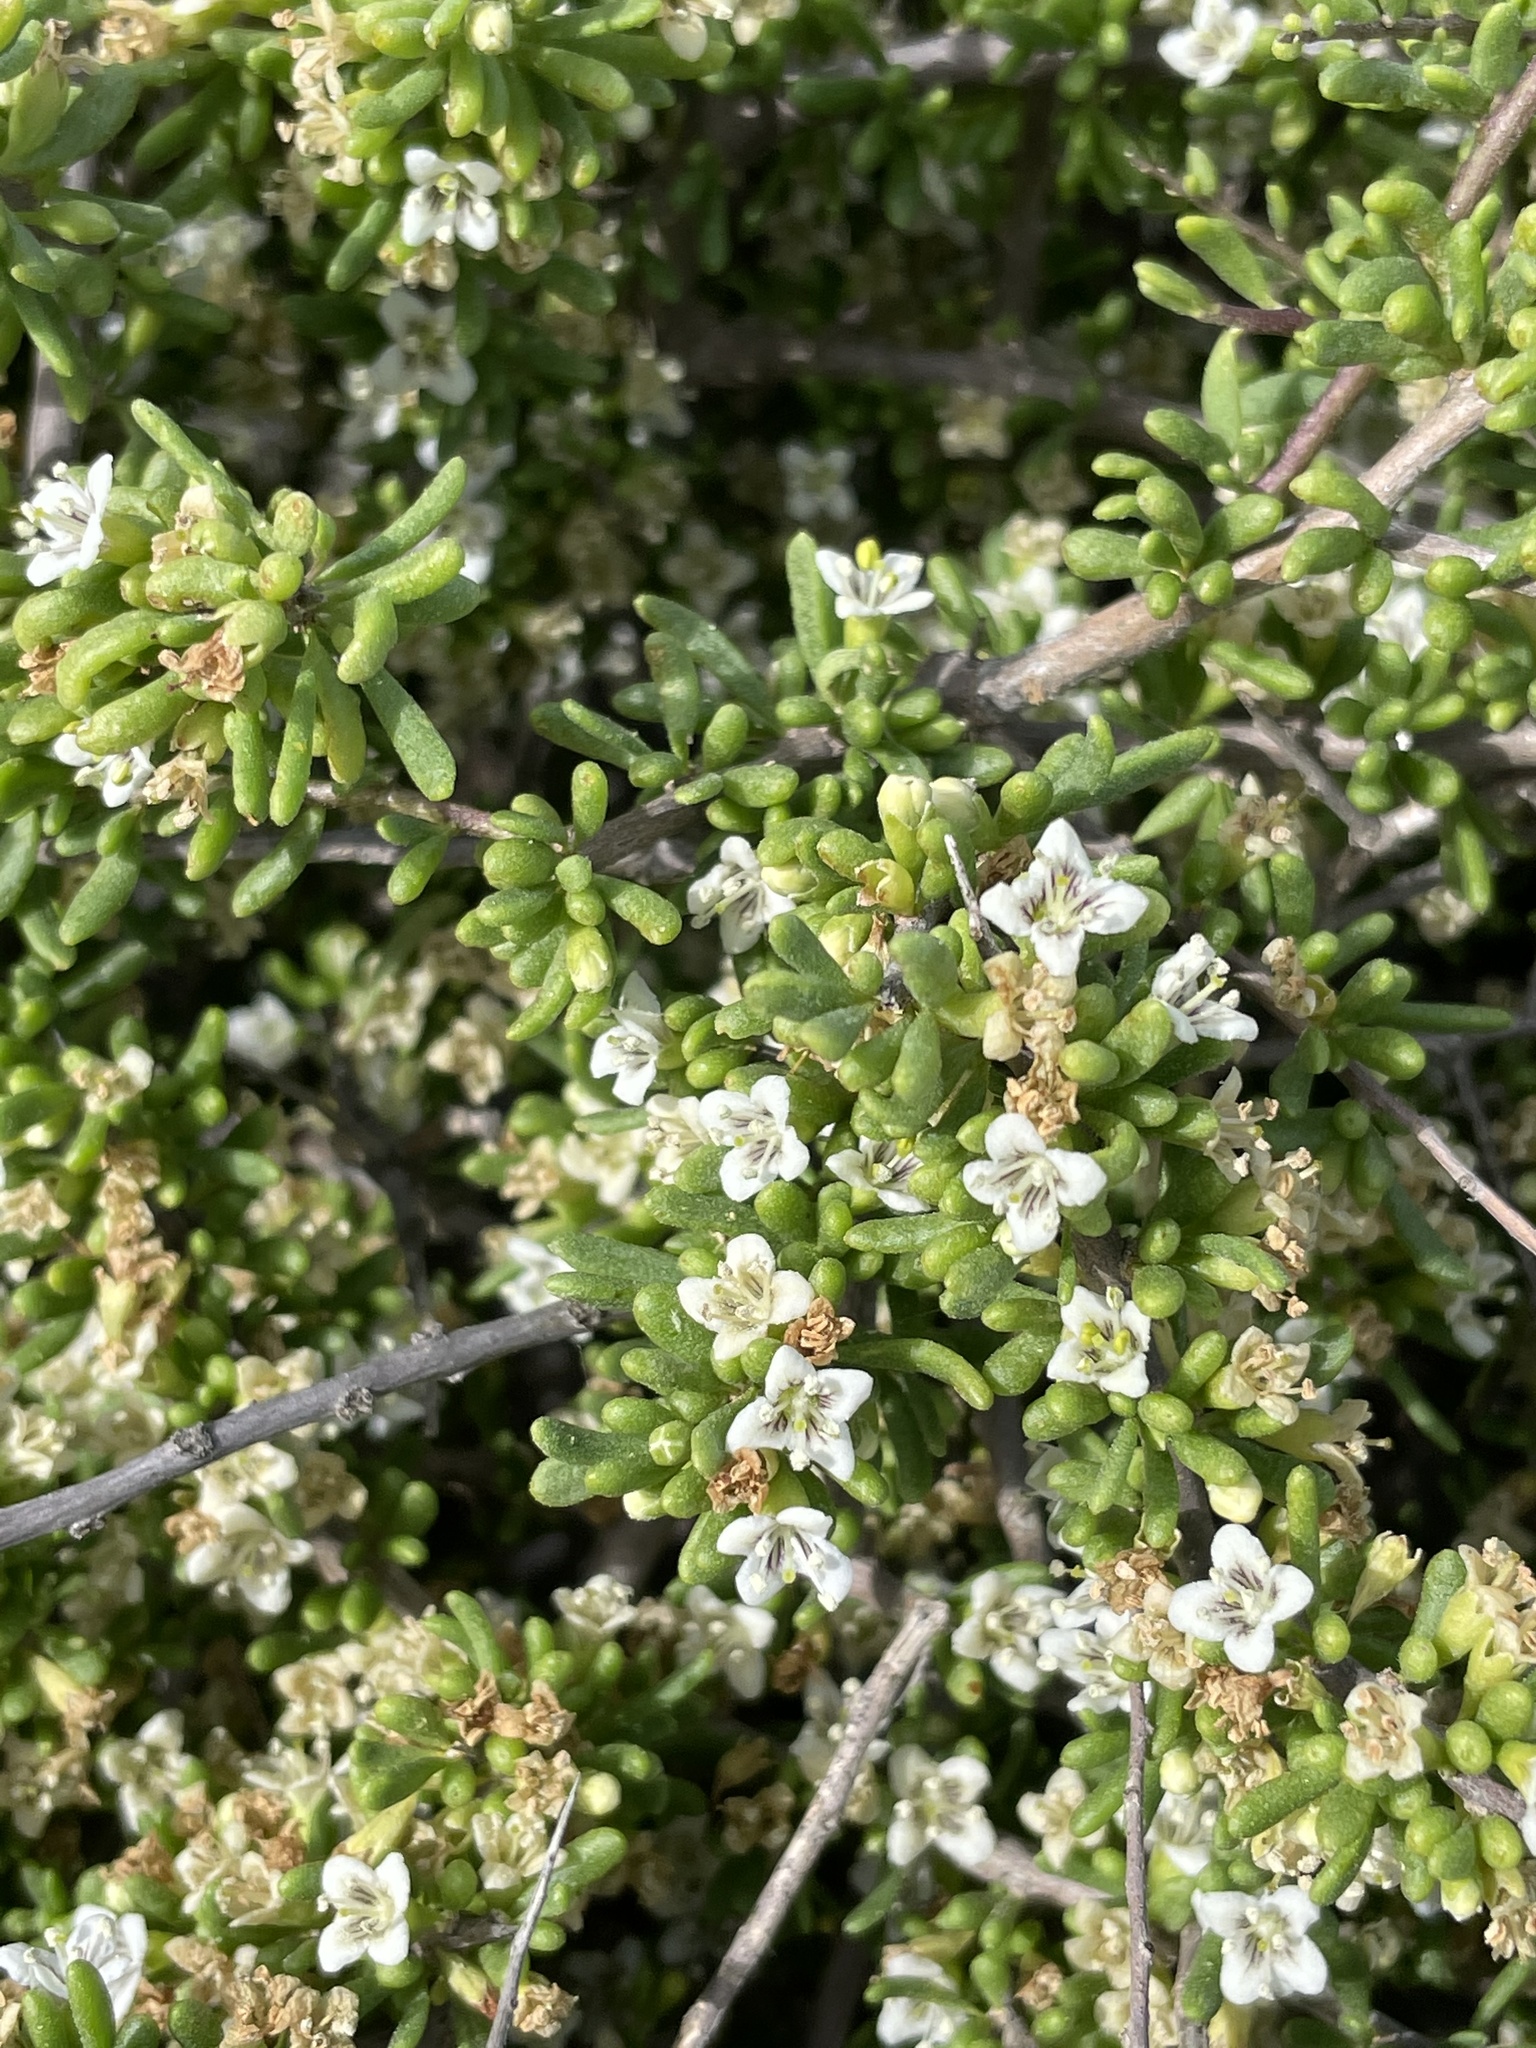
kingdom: Plantae
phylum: Tracheophyta
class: Magnoliopsida
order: Solanales
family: Solanaceae
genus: Lycium
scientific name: Lycium californicum
